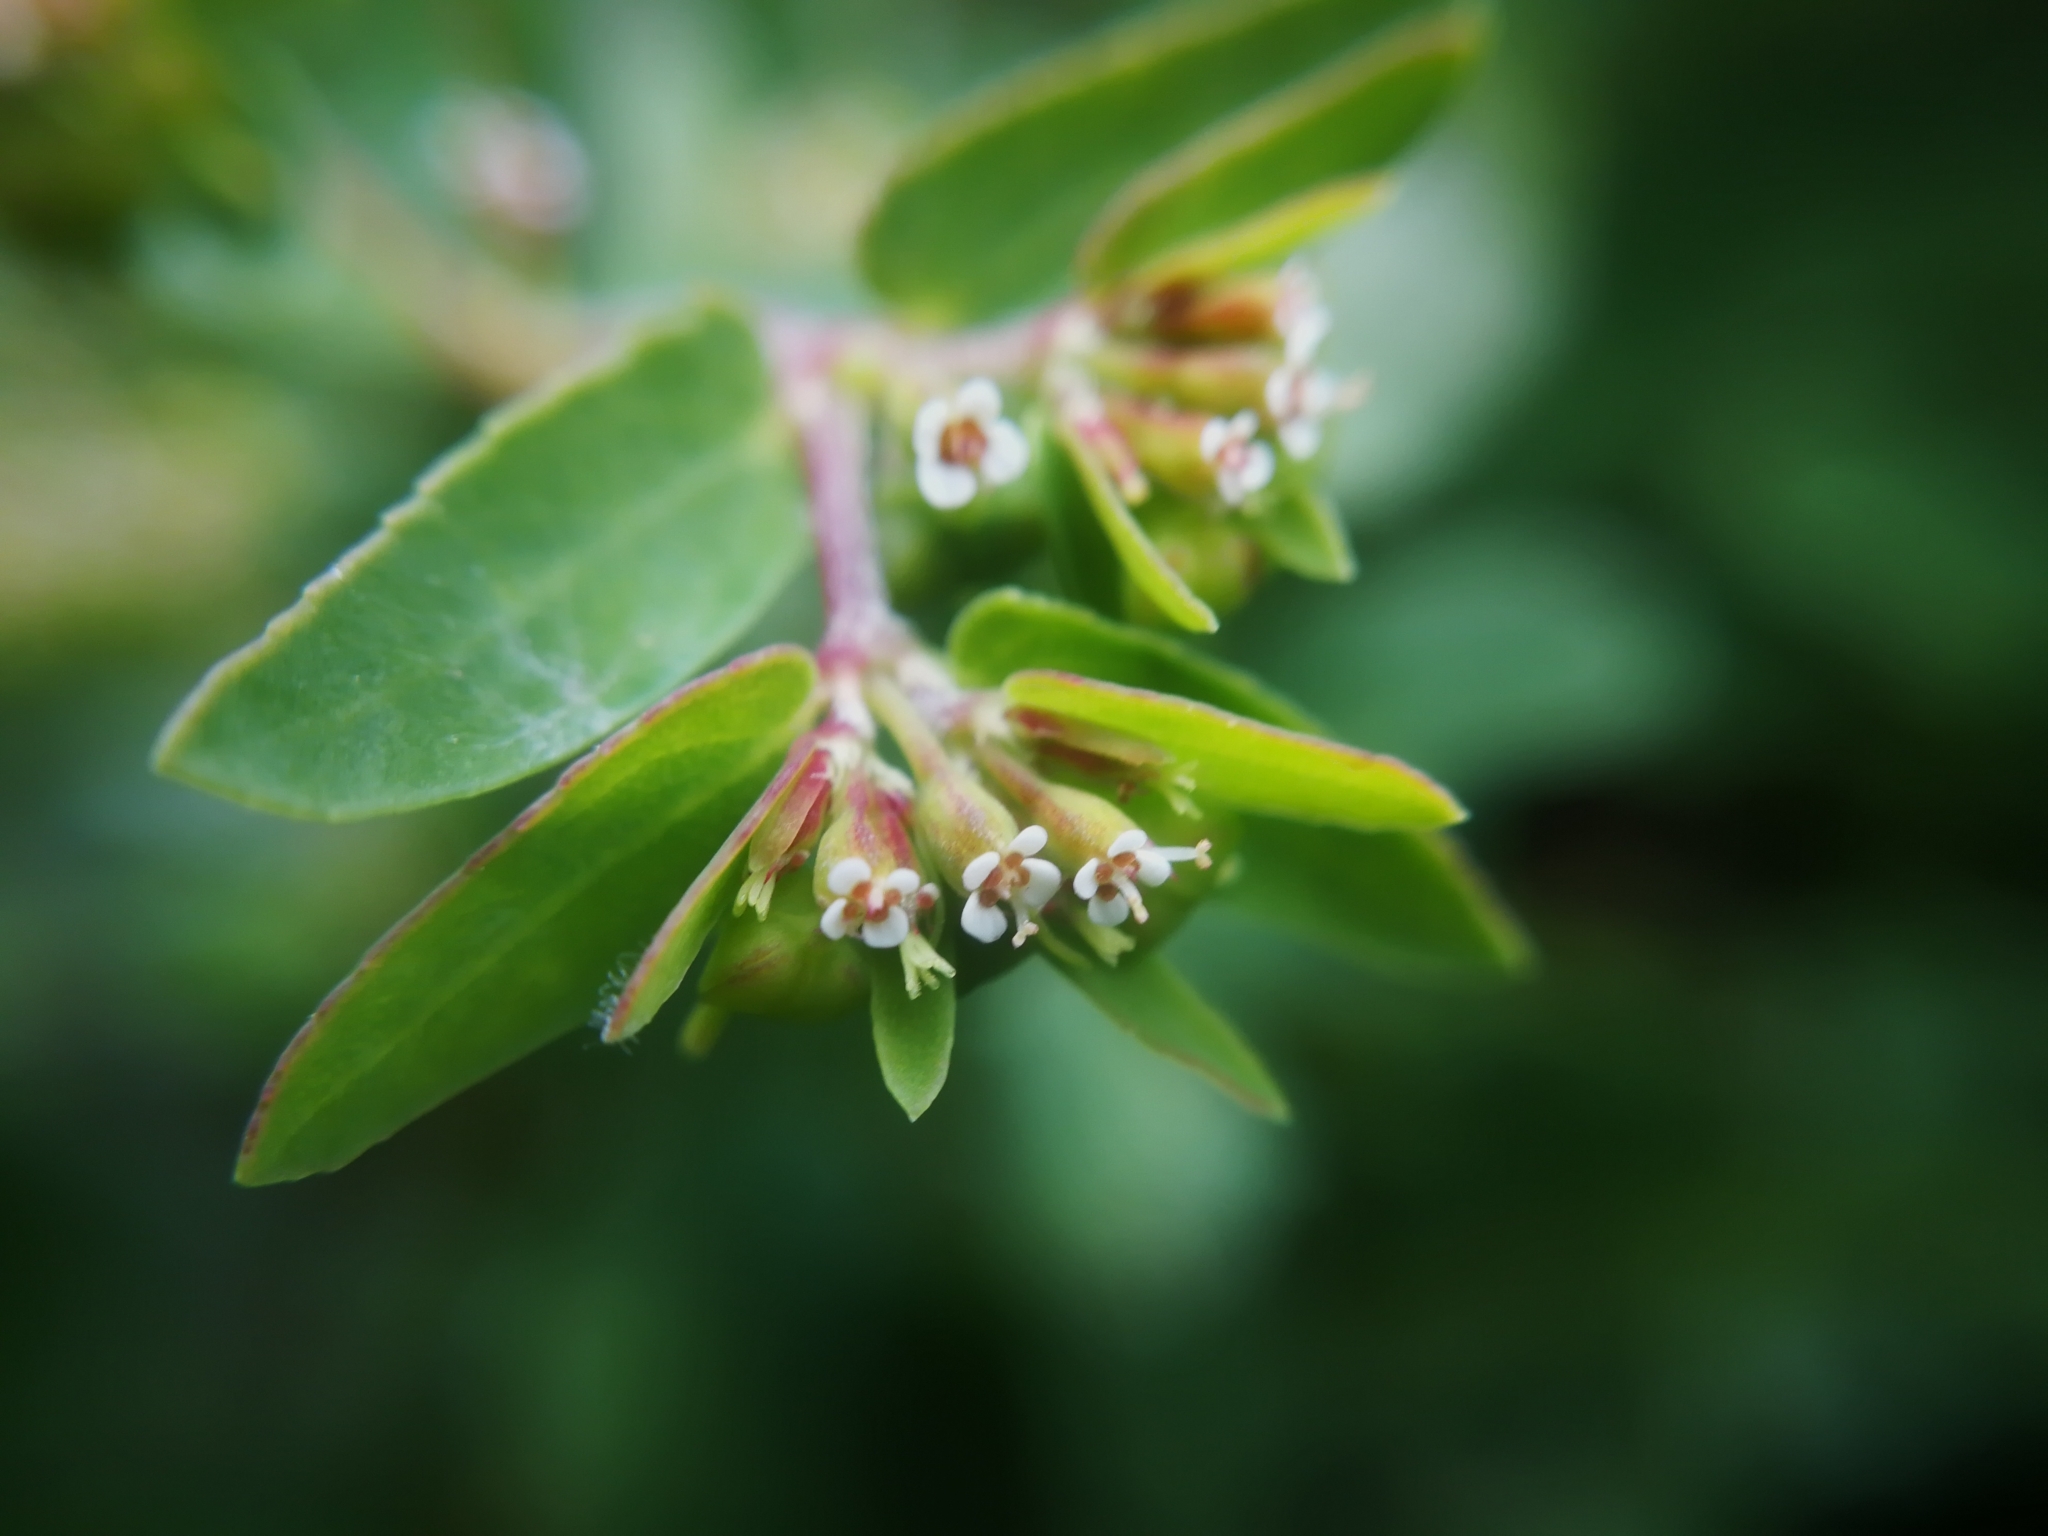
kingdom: Plantae
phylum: Tracheophyta
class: Magnoliopsida
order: Malpighiales
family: Euphorbiaceae
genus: Euphorbia
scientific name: Euphorbia nutans
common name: Eyebane
